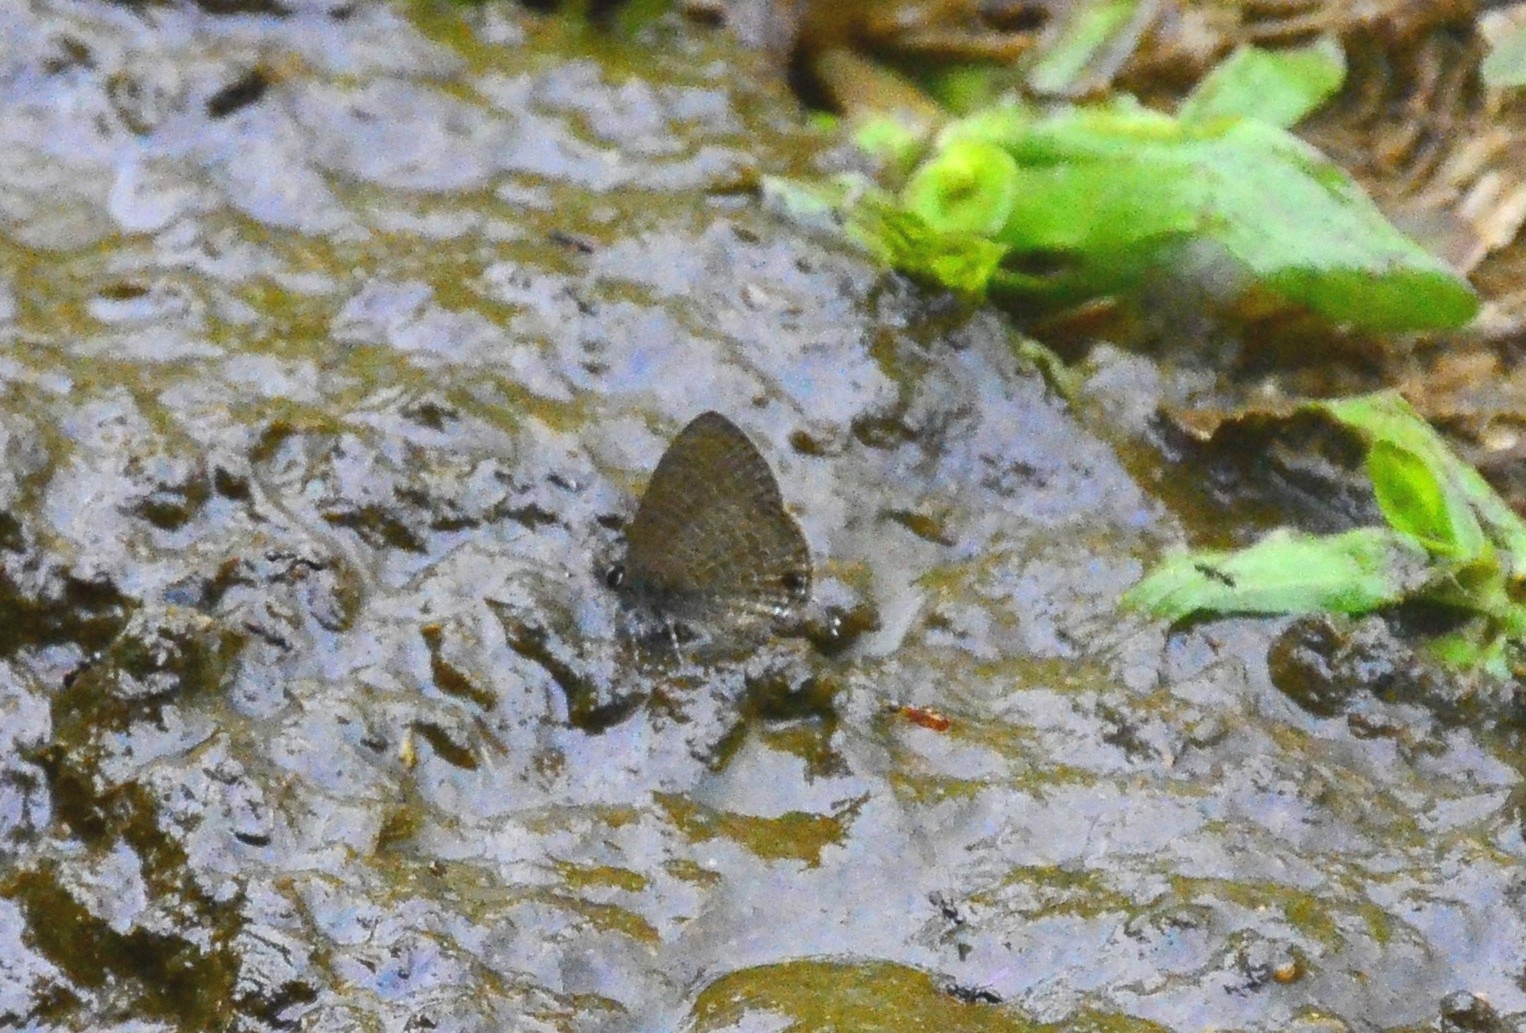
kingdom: Animalia
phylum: Arthropoda
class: Insecta
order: Lepidoptera
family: Lycaenidae
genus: Prosotas
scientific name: Prosotas nora
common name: Common line blue
